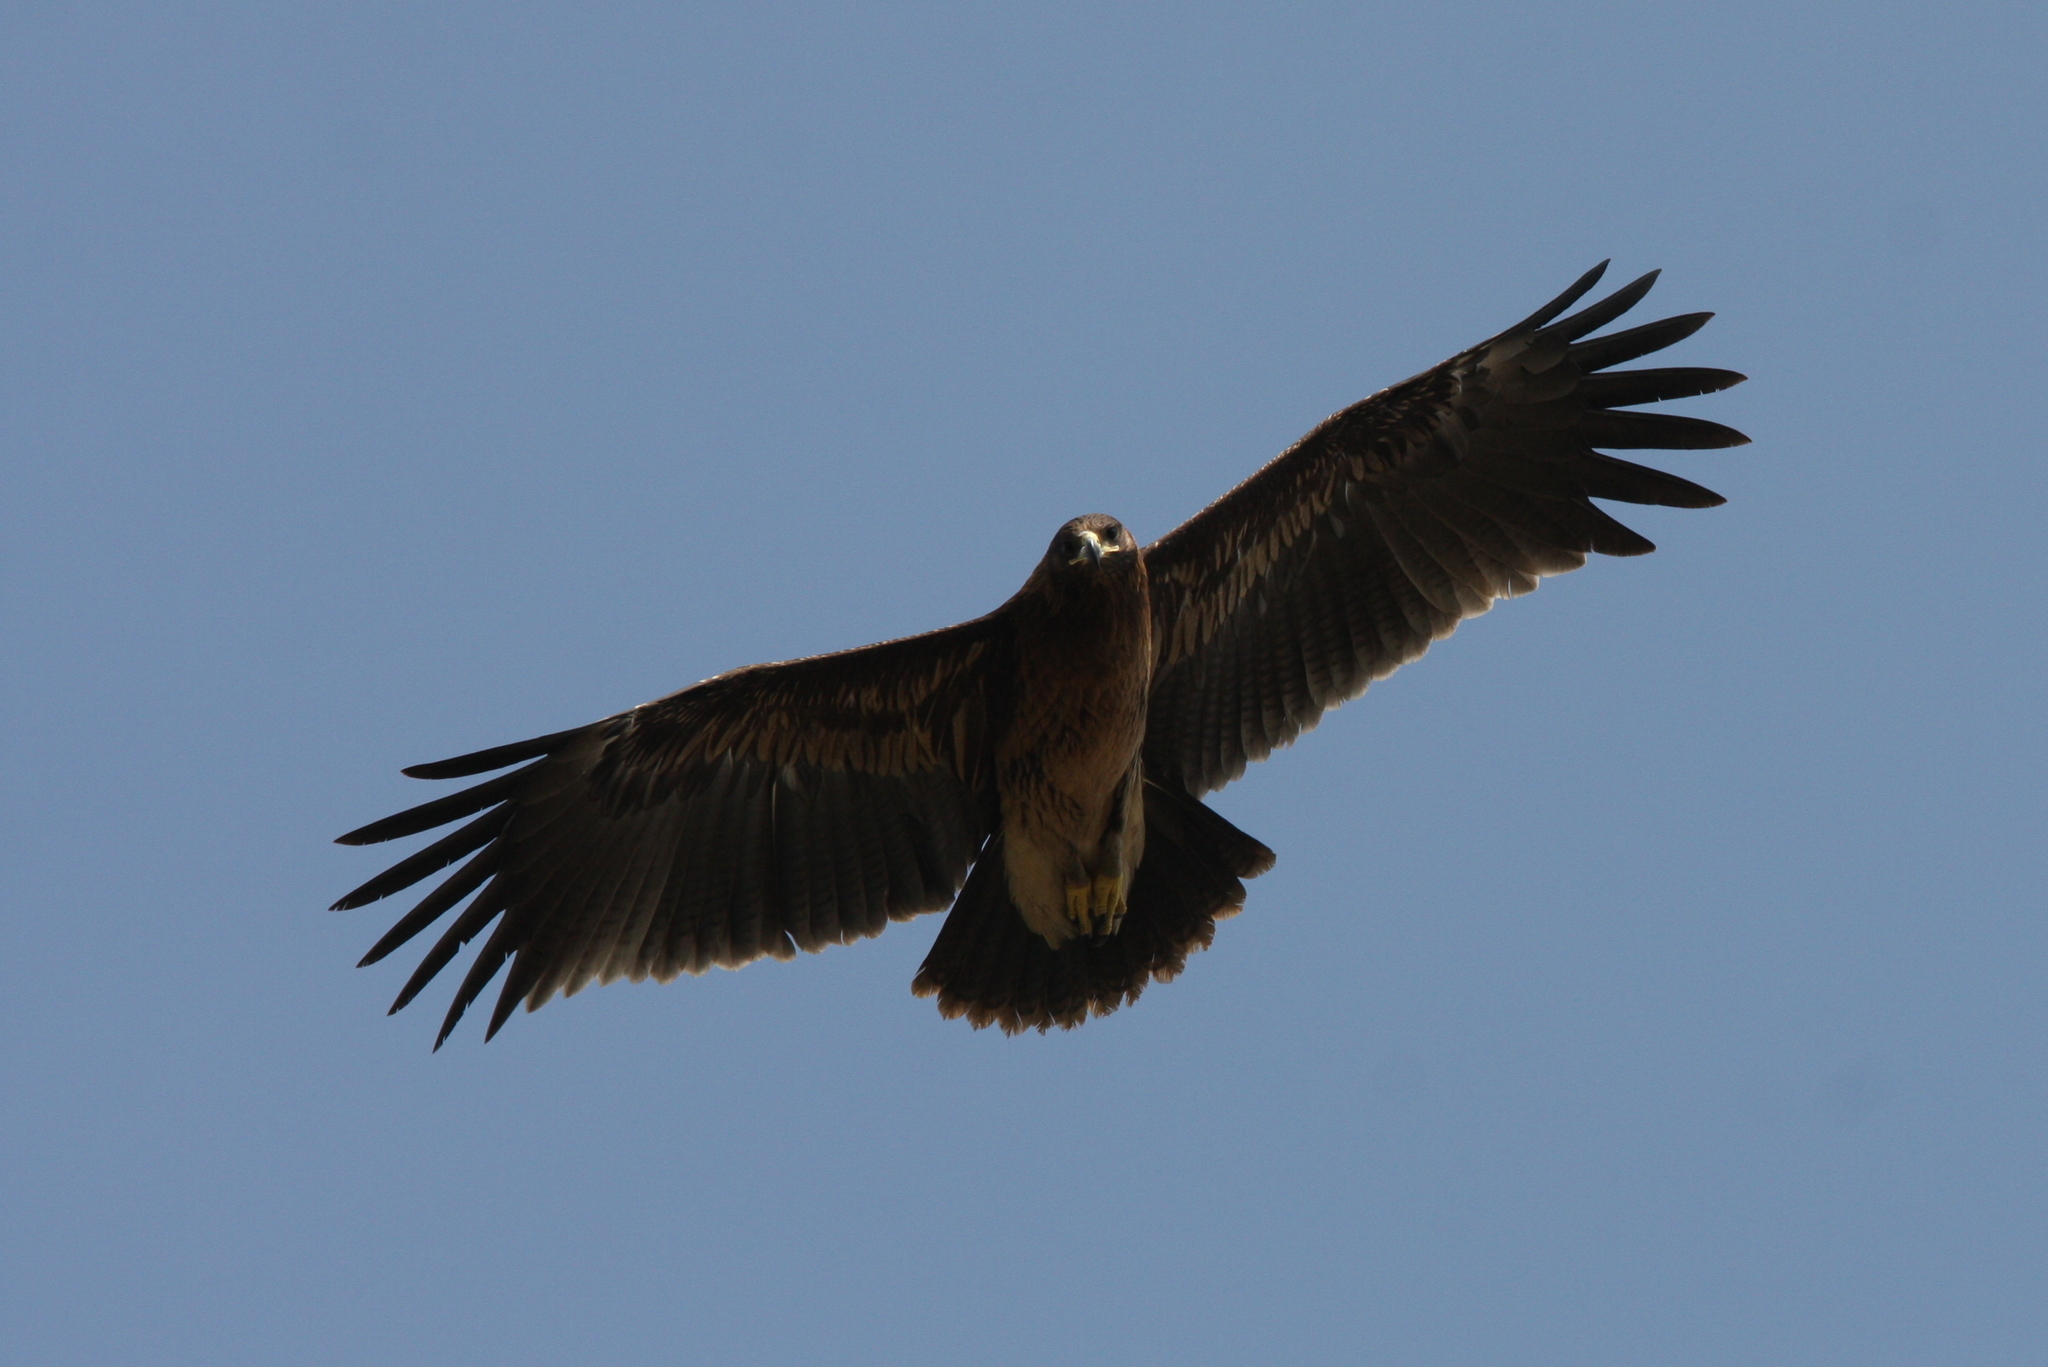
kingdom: Animalia
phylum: Chordata
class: Aves
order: Accipitriformes
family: Accipitridae
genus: Aquila
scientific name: Aquila clanga
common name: Greater spotted eagle
